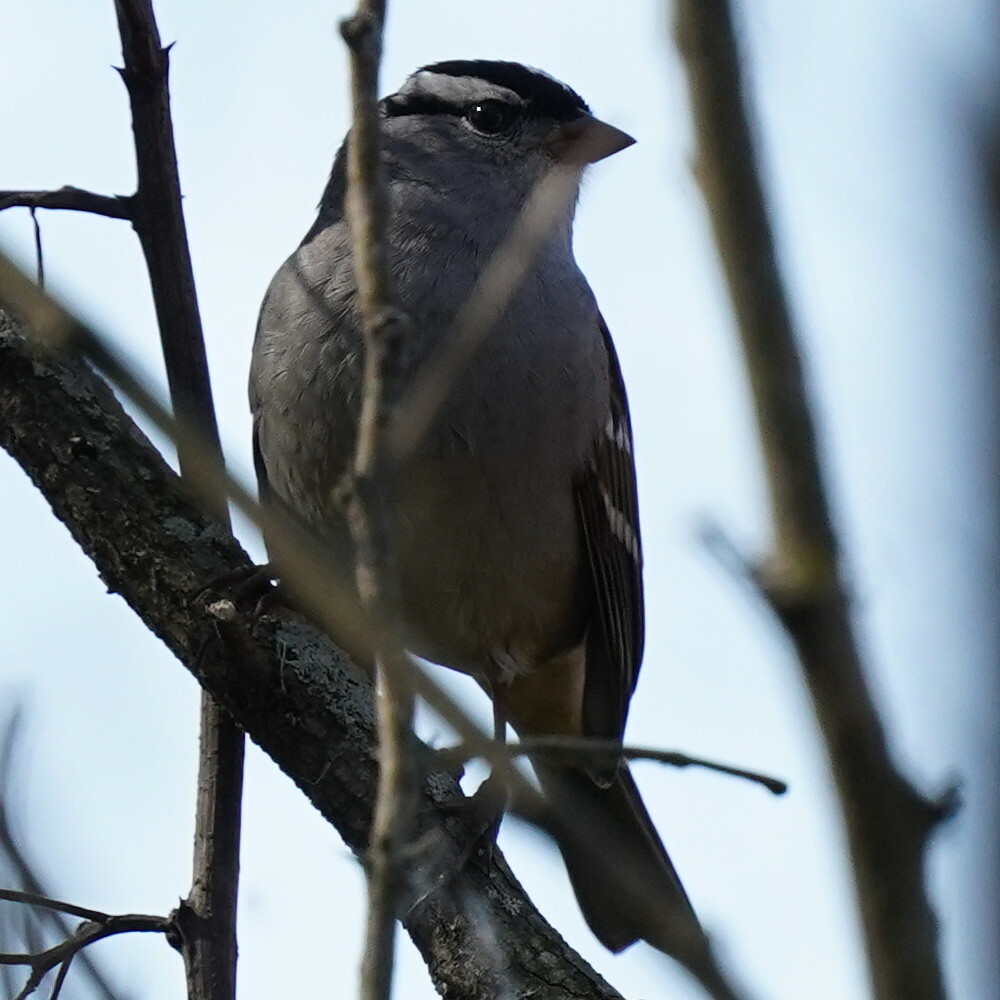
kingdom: Animalia
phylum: Chordata
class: Aves
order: Passeriformes
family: Passerellidae
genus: Zonotrichia
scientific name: Zonotrichia leucophrys
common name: White-crowned sparrow
